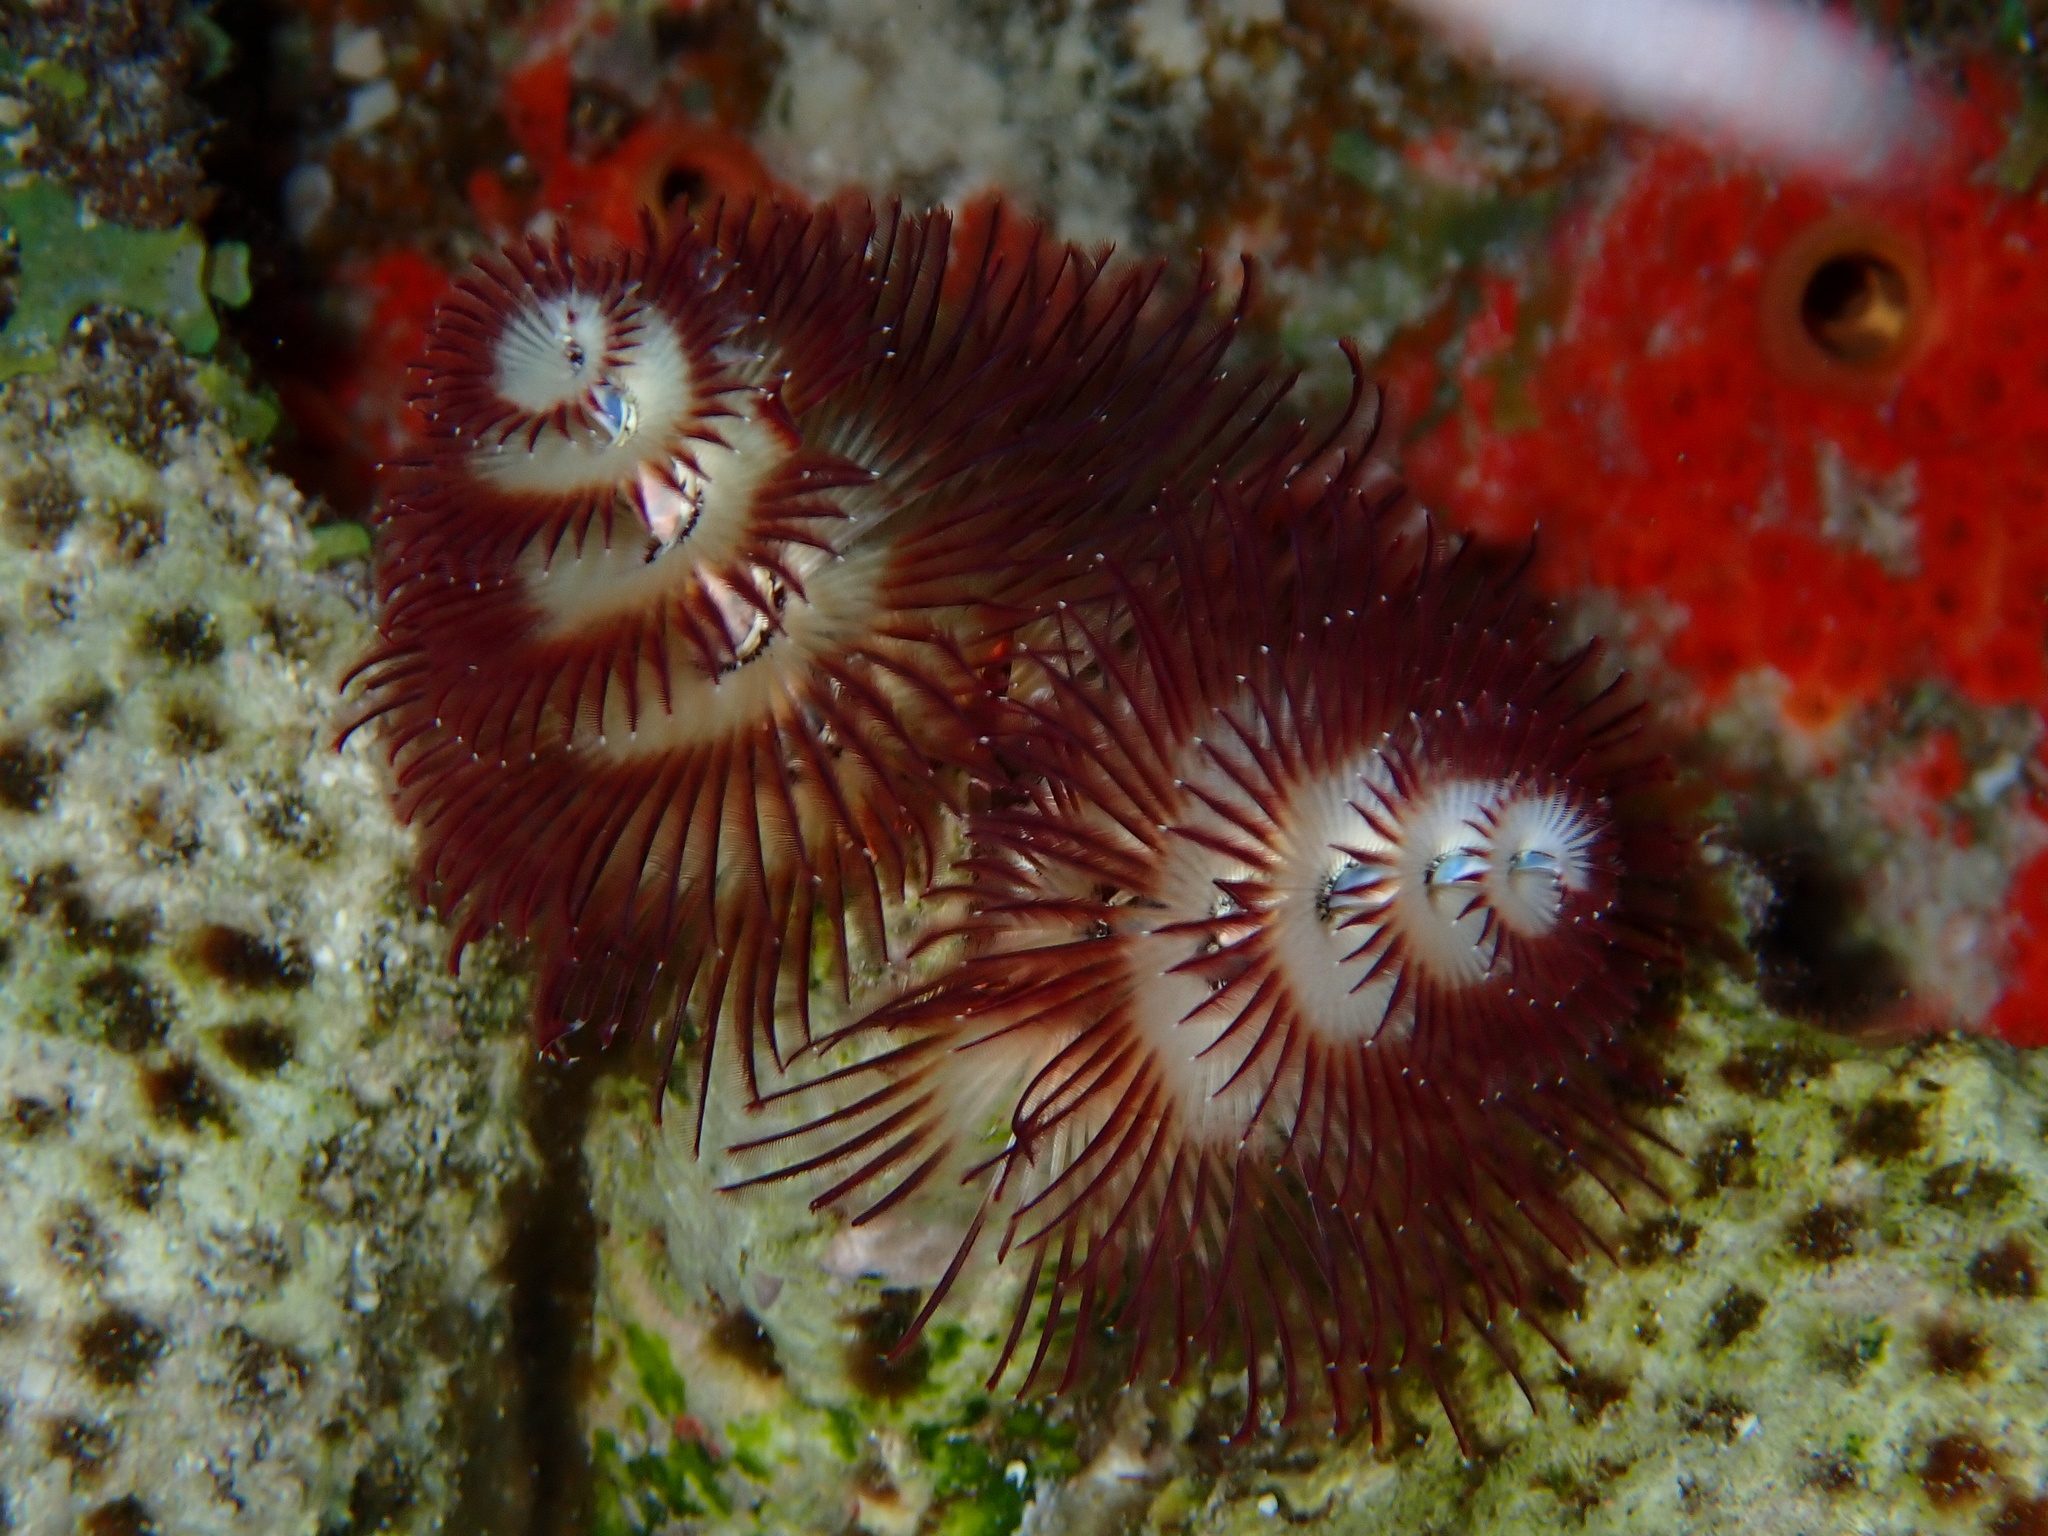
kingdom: Animalia
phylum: Annelida
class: Polychaeta
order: Sabellida
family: Serpulidae
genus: Spirobranchus
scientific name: Spirobranchus giganteus
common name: Christmas tree worm
